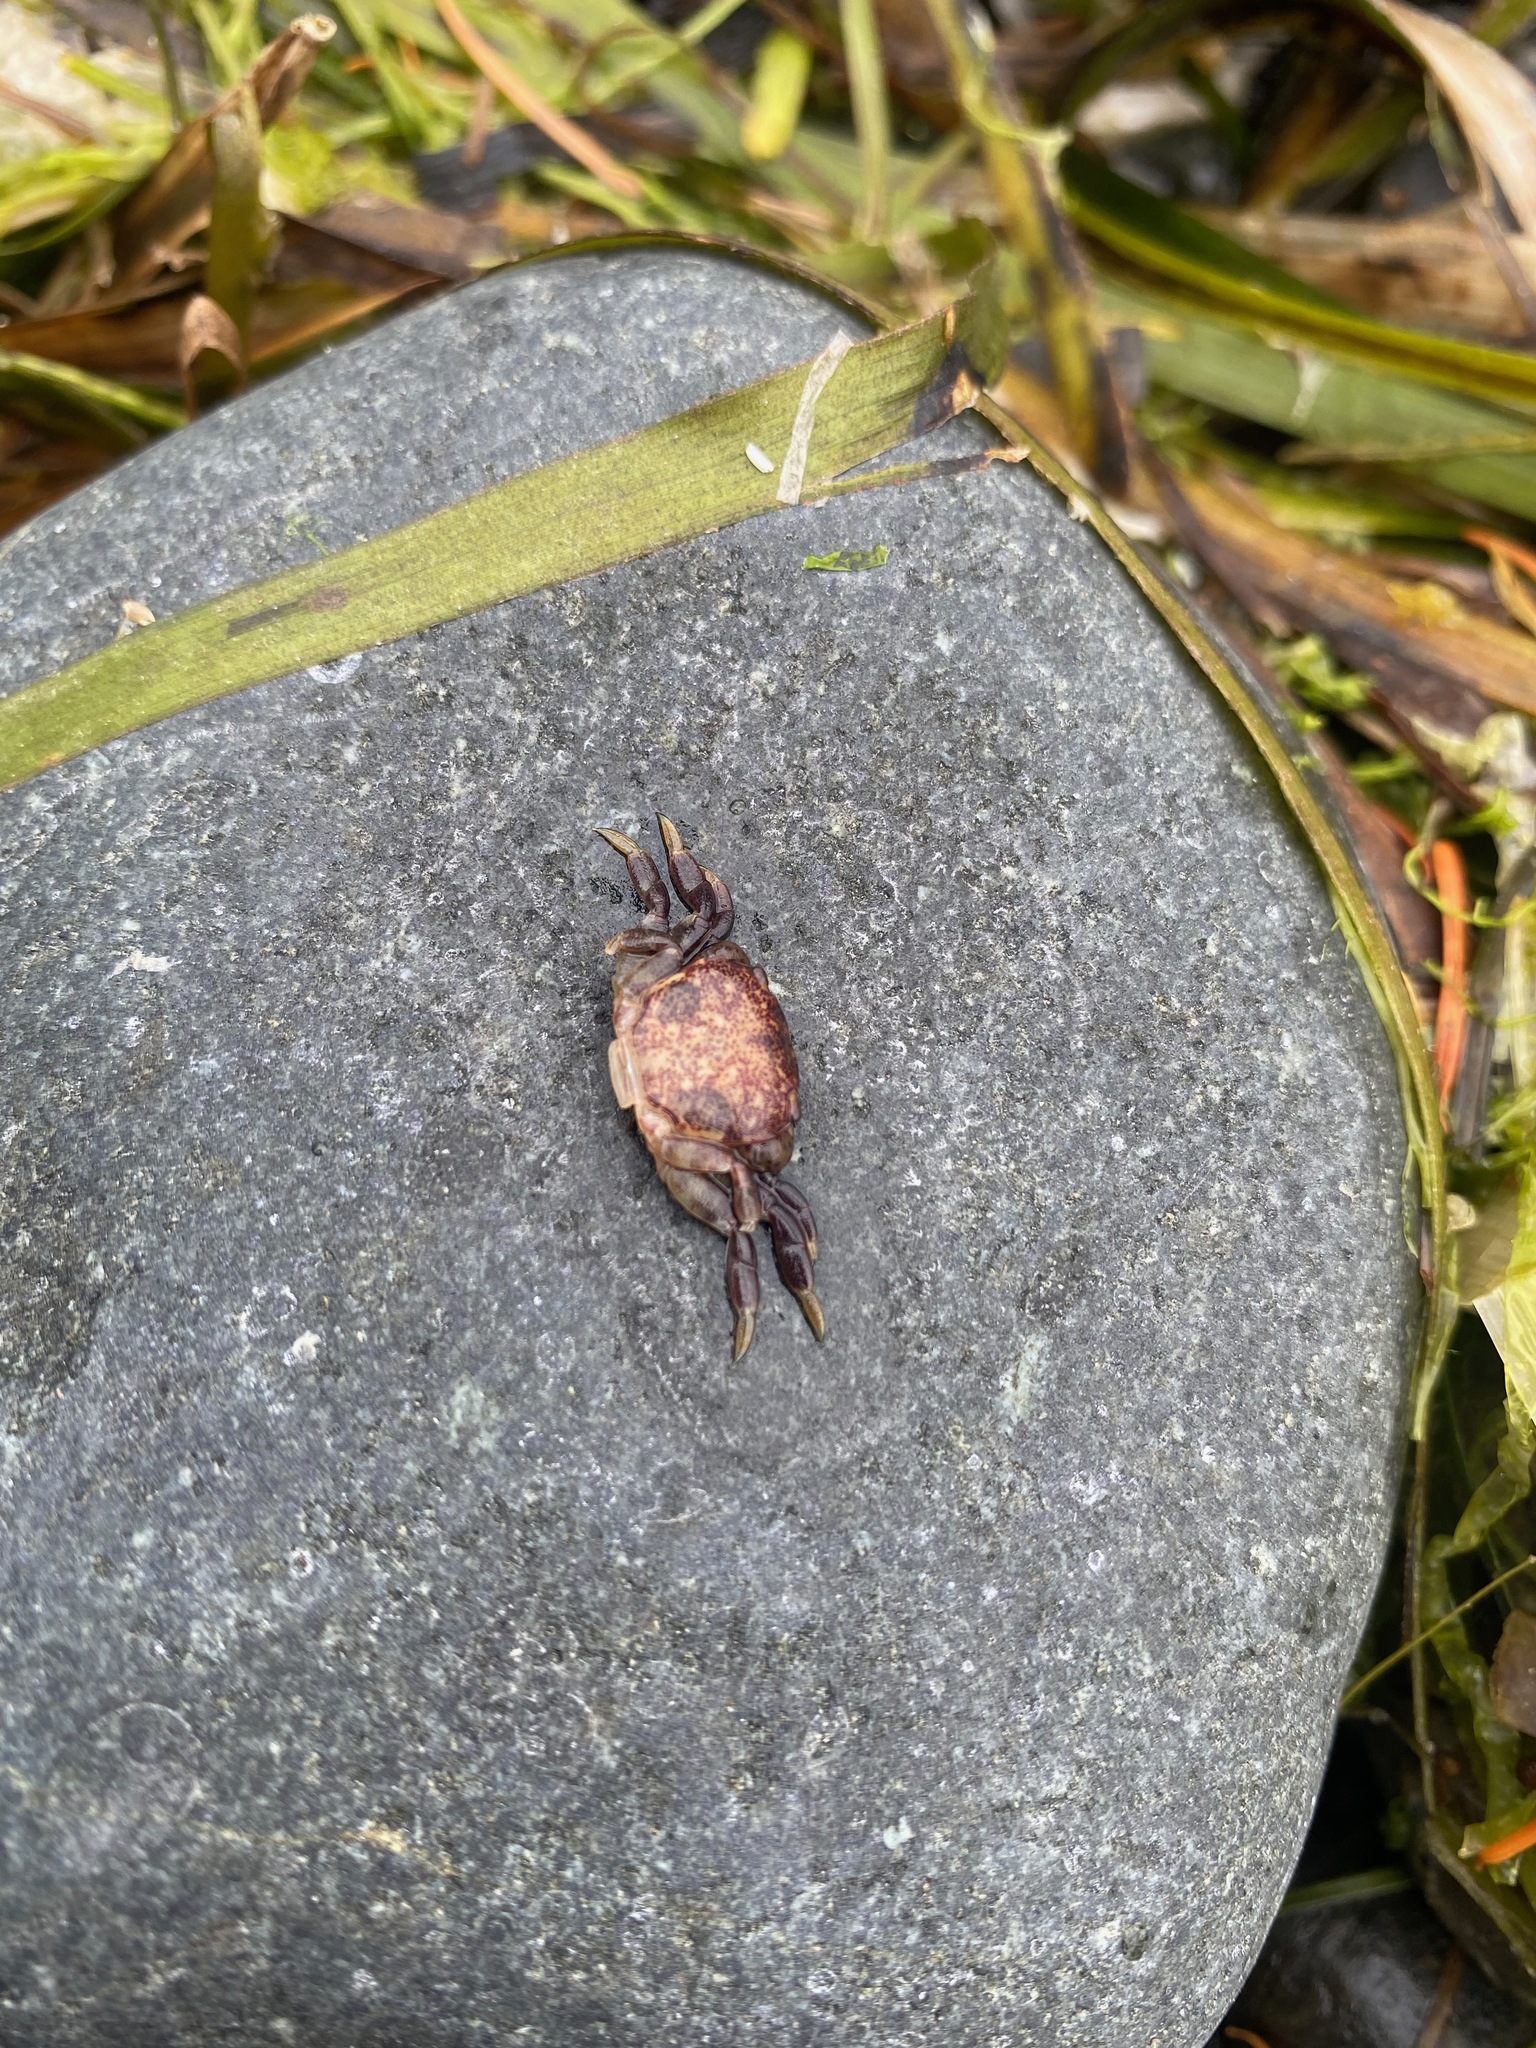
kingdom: Animalia
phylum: Arthropoda
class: Malacostraca
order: Decapoda
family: Varunidae
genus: Hemigrapsus
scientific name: Hemigrapsus nudus
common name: Purple shore crab
